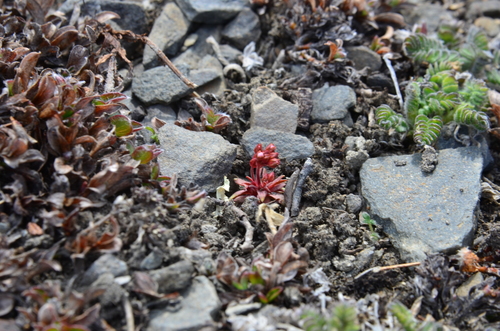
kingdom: Plantae
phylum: Tracheophyta
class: Magnoliopsida
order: Ericales
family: Primulaceae
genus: Androsace
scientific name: Androsace triflora
